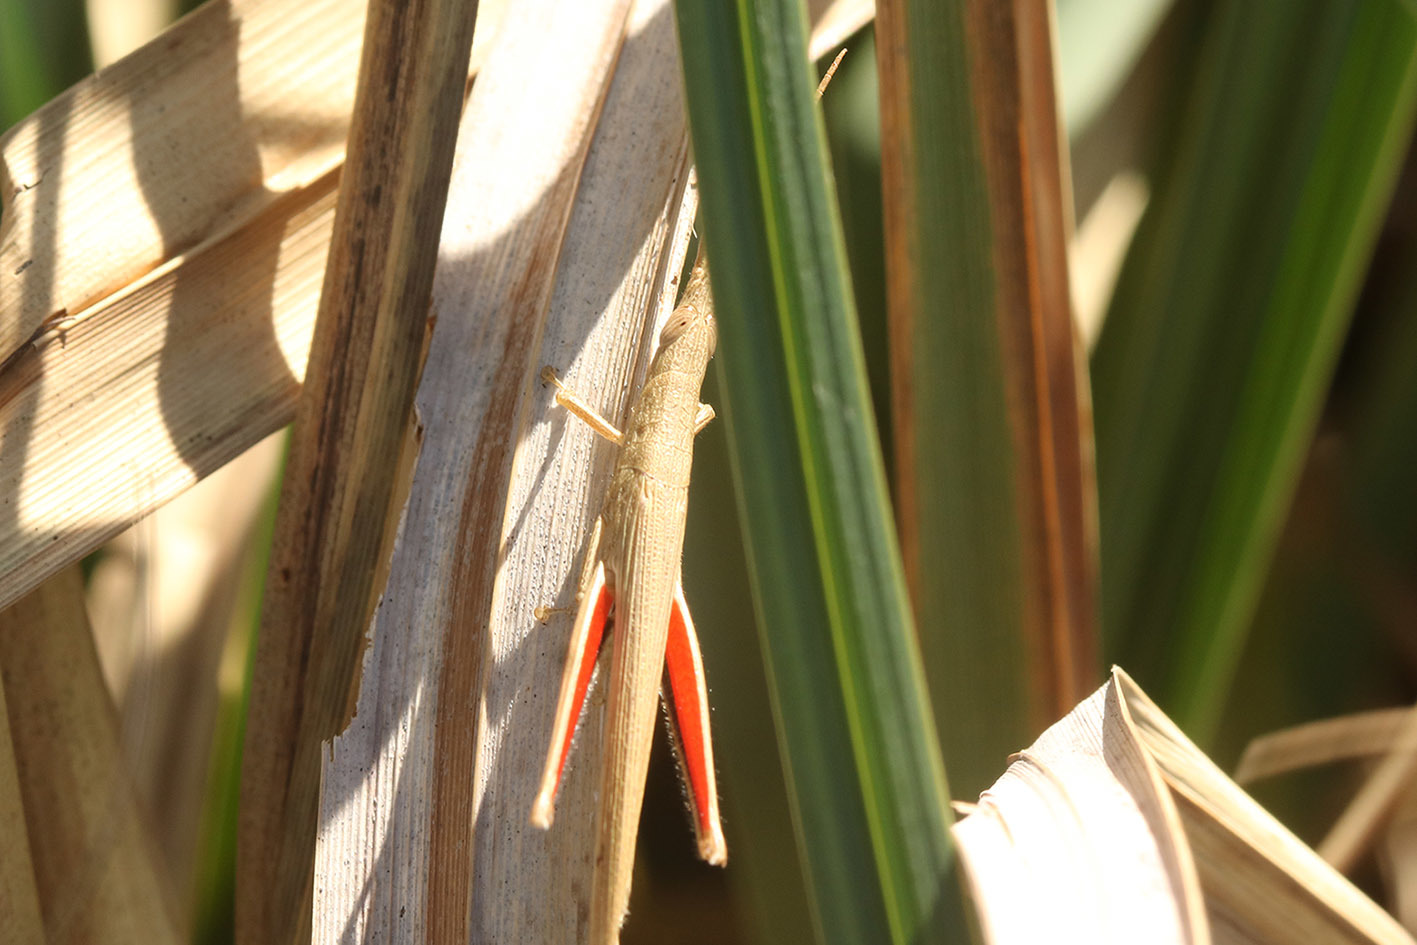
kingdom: Animalia
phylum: Arthropoda
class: Insecta
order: Orthoptera
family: Acrididae
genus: Haroldgrantia
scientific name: Haroldgrantia lignosa
